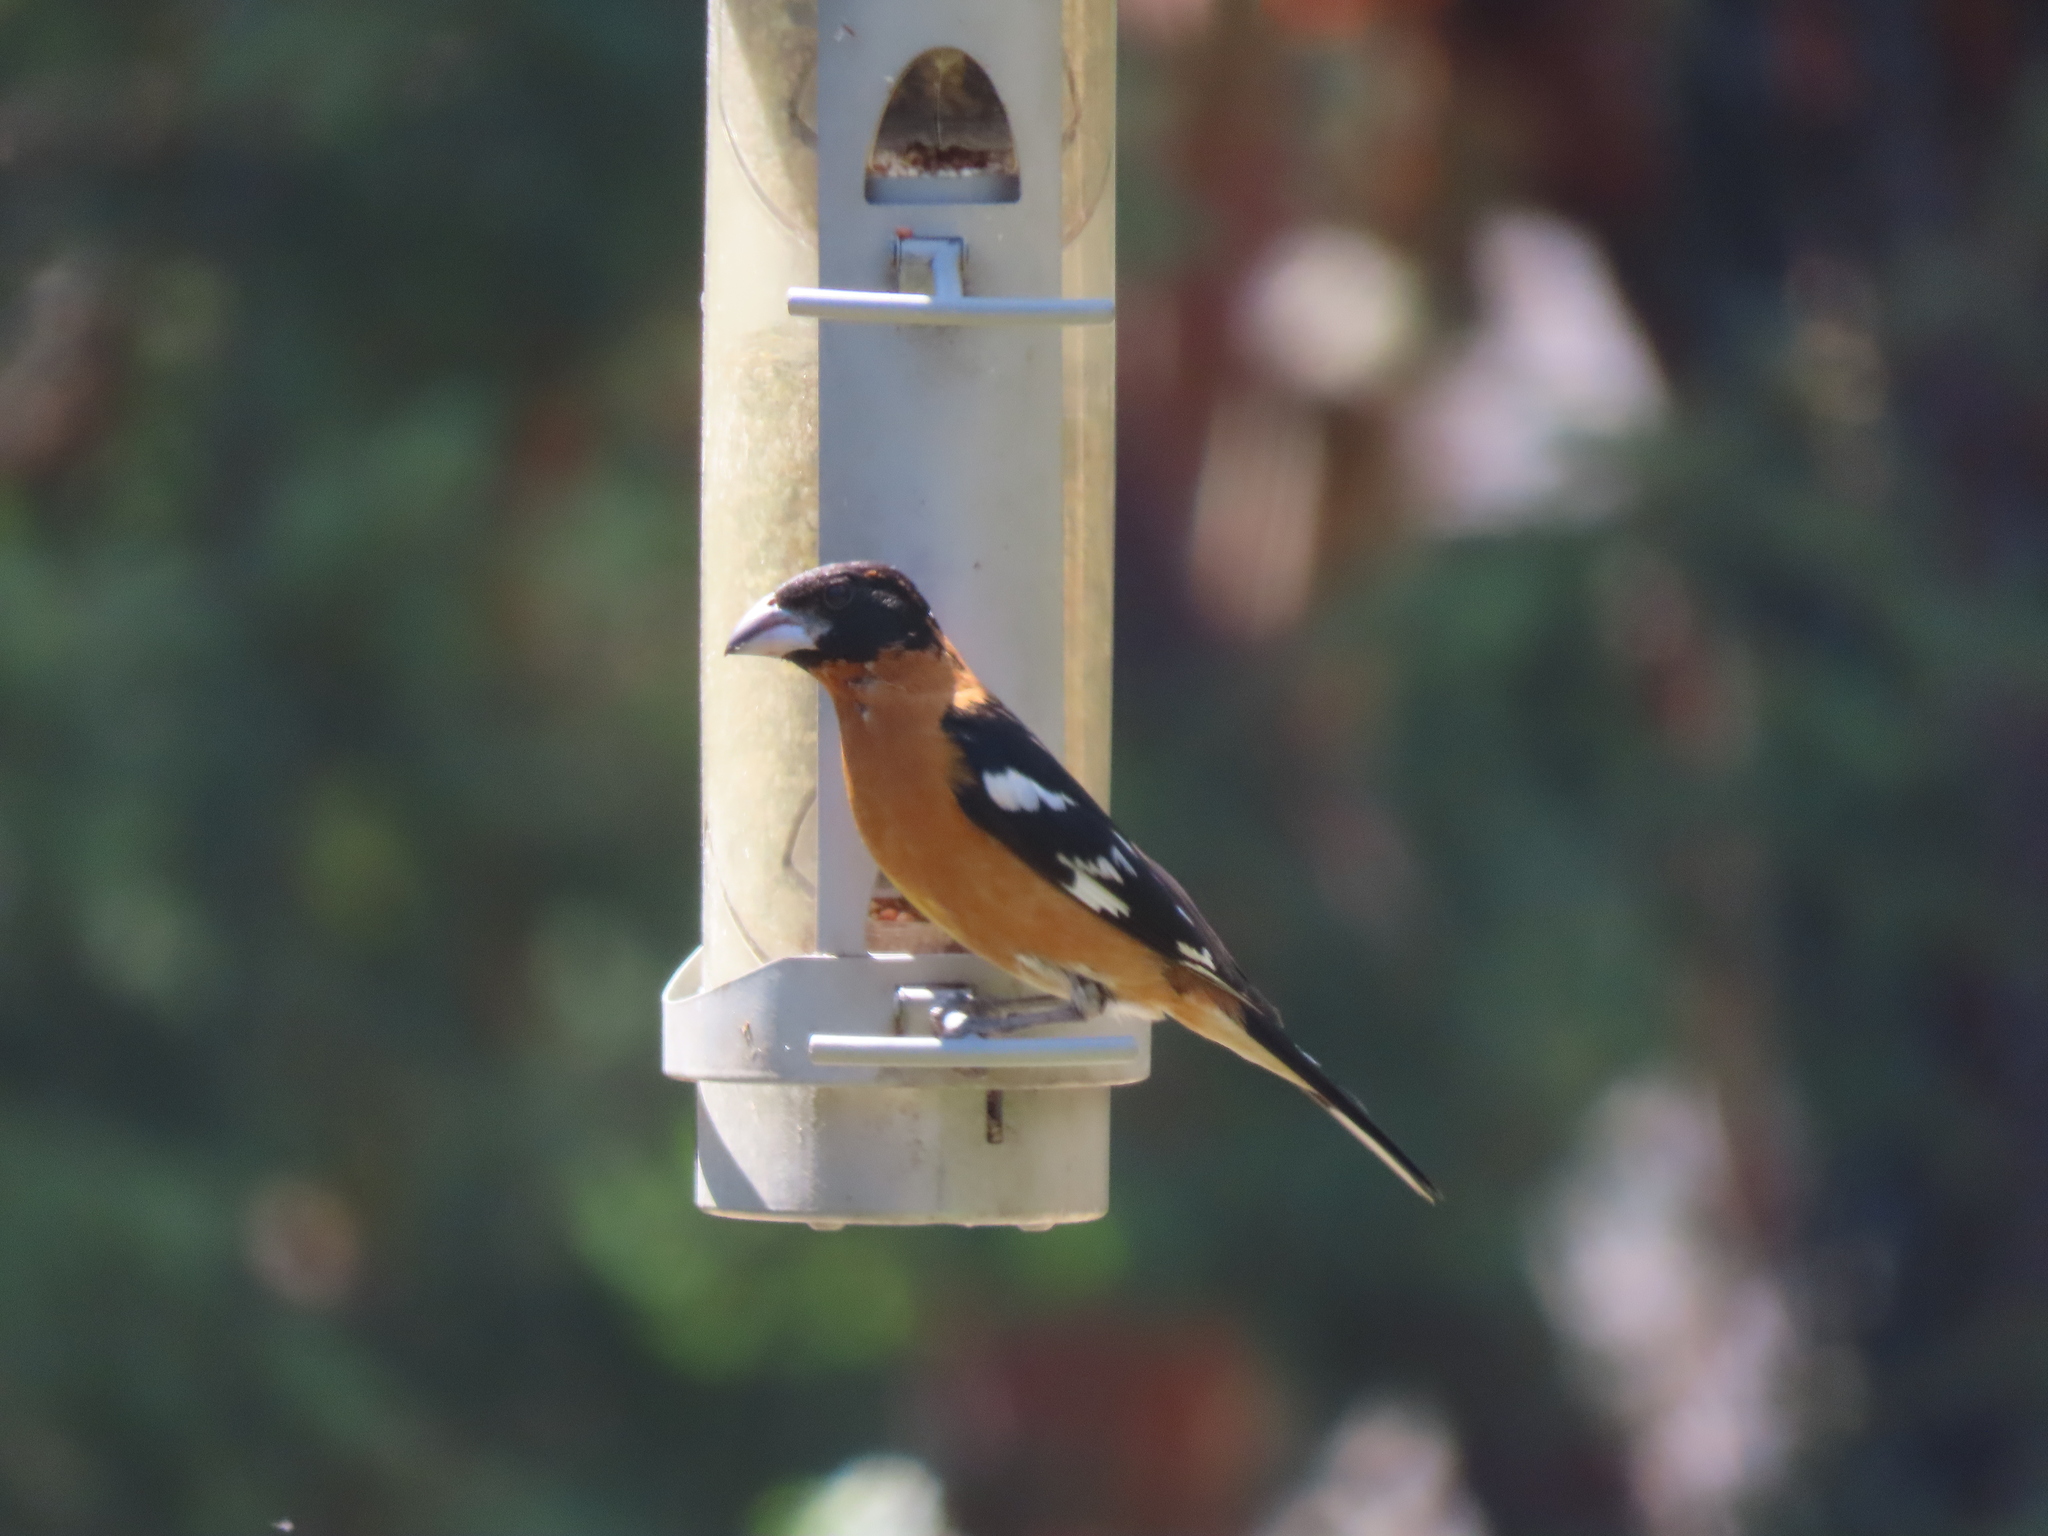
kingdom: Animalia
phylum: Chordata
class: Aves
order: Passeriformes
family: Cardinalidae
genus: Pheucticus
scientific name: Pheucticus melanocephalus
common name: Black-headed grosbeak
